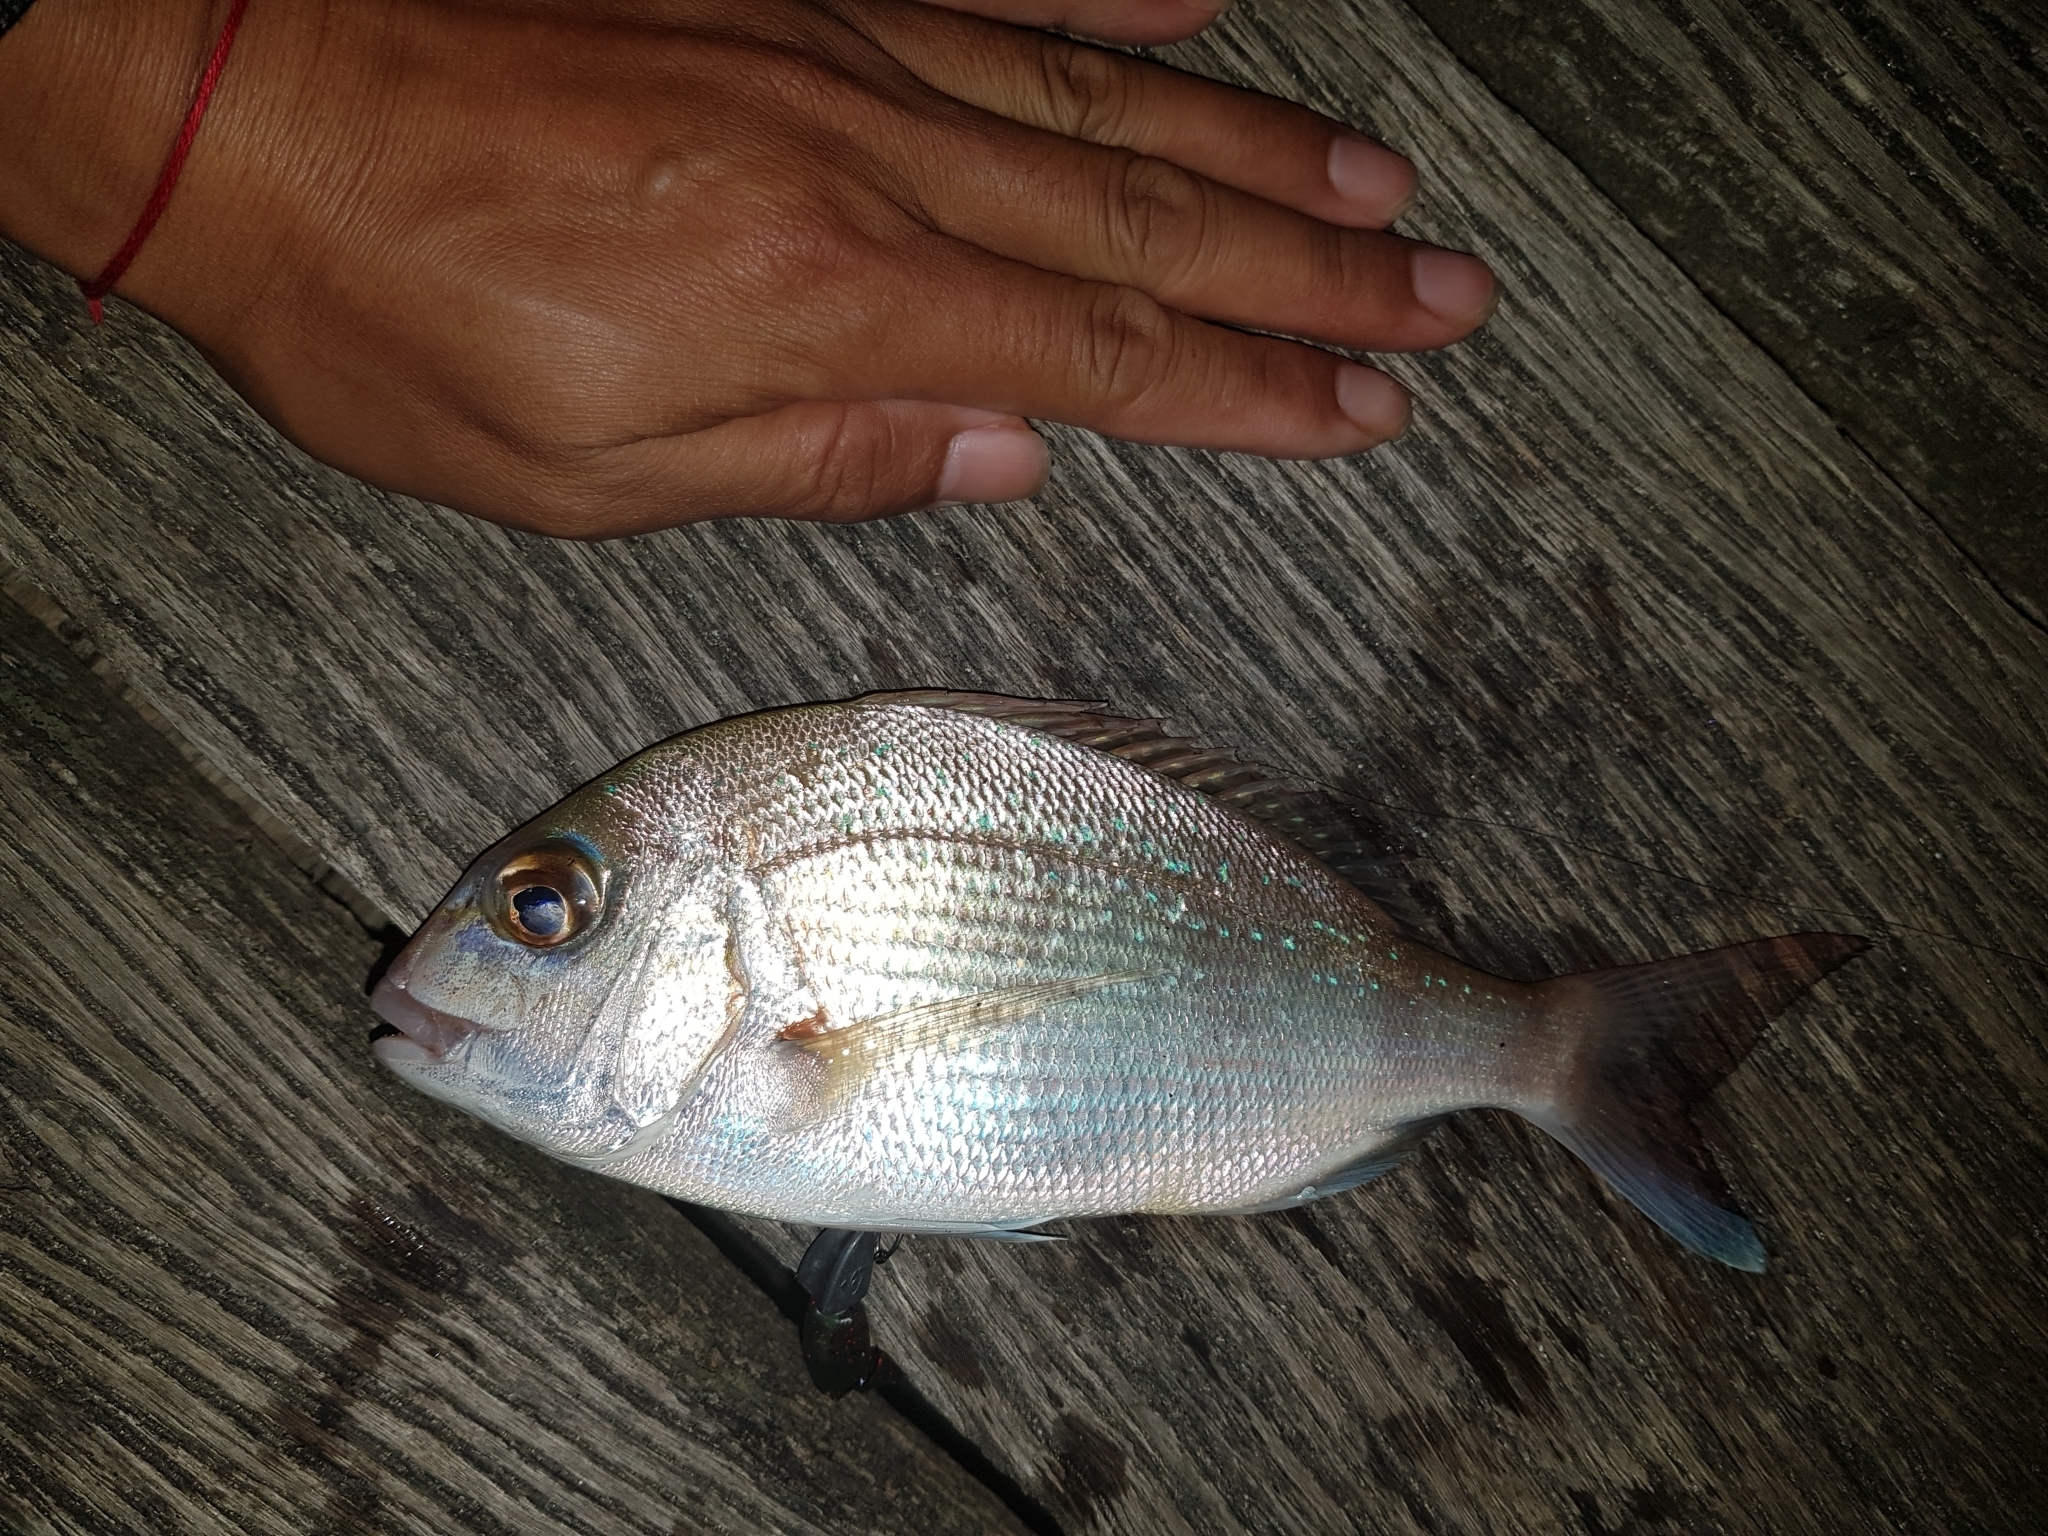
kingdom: Animalia
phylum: Chordata
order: Perciformes
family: Sparidae
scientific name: Sparidae
